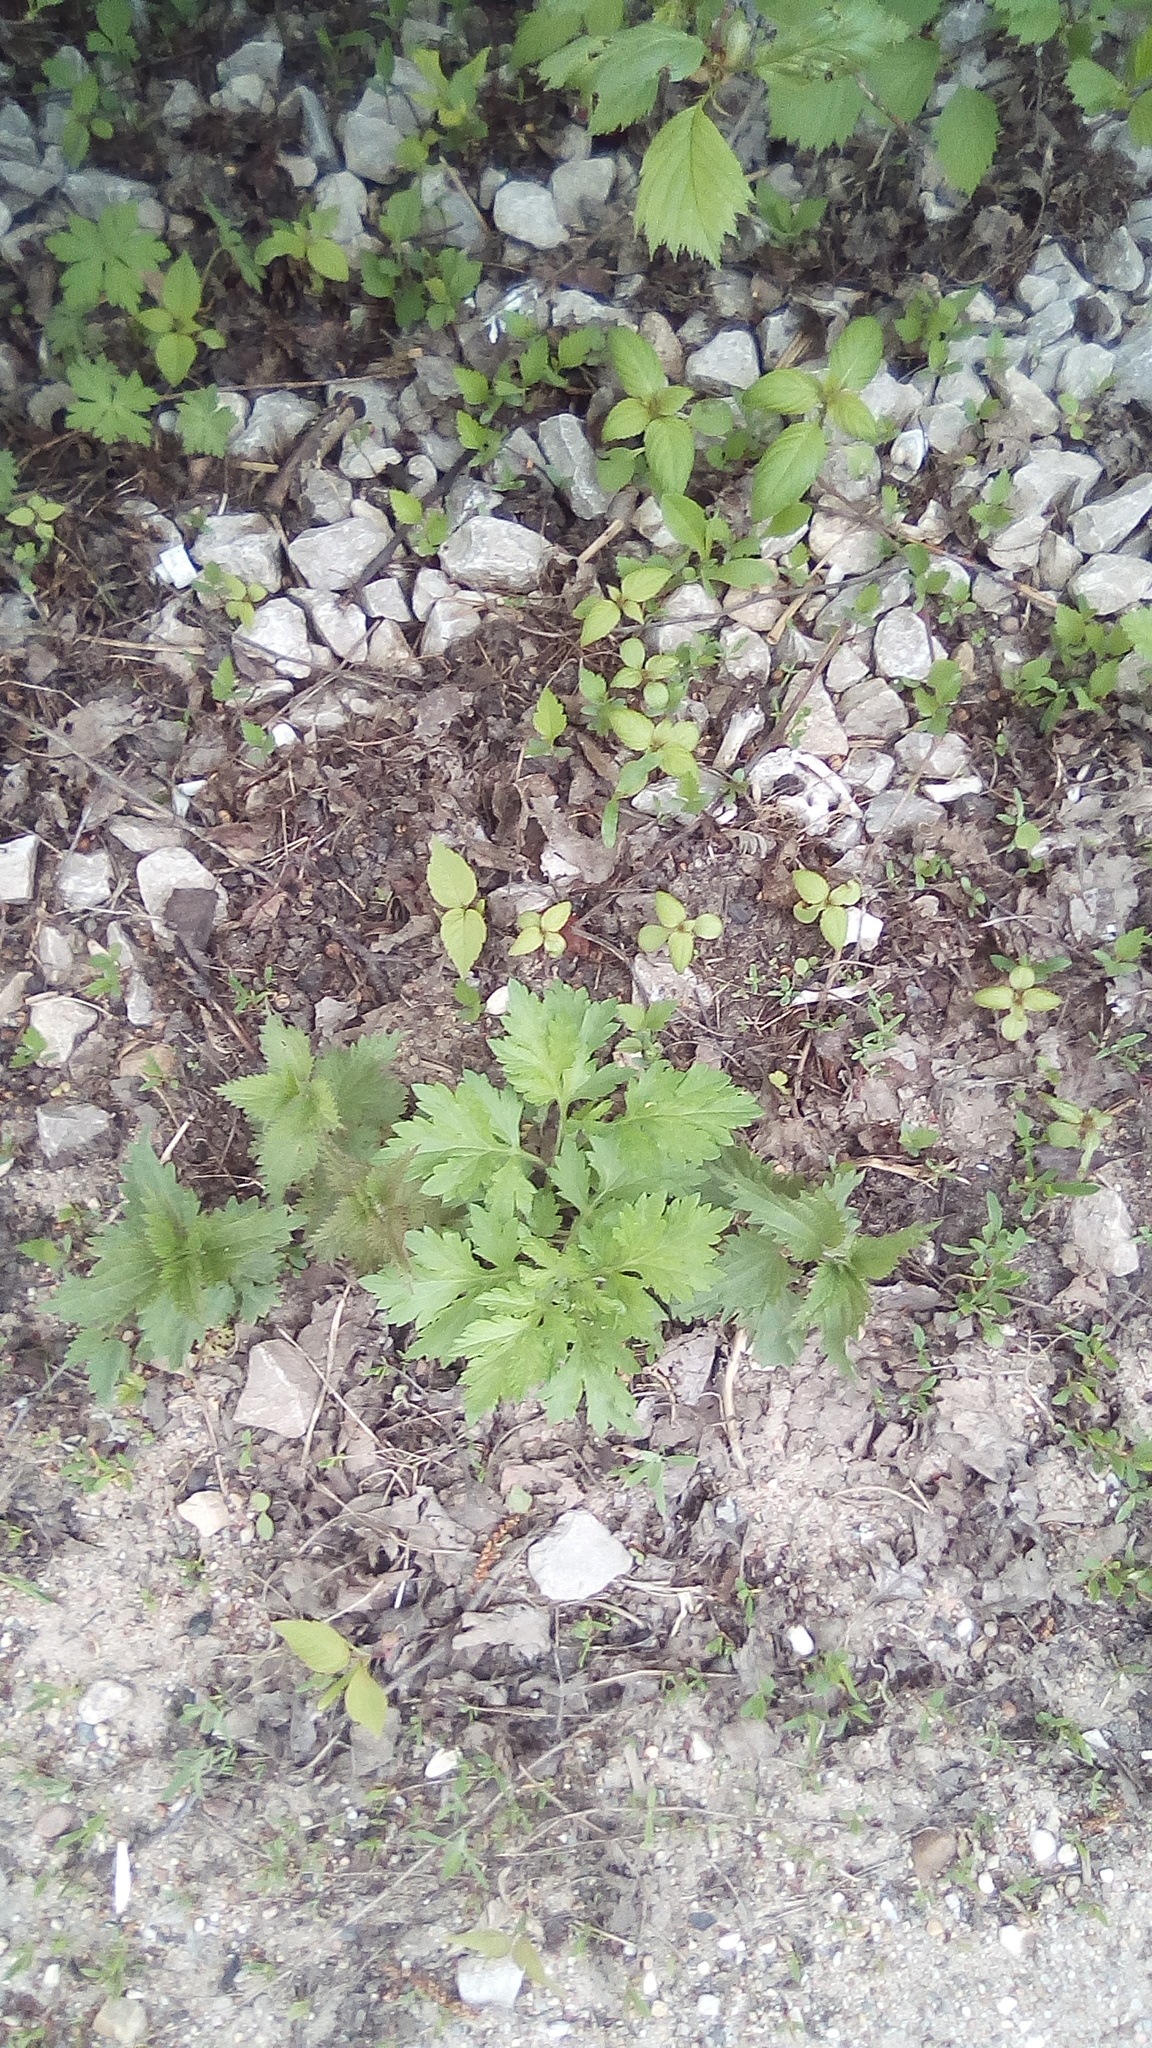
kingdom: Plantae
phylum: Tracheophyta
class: Magnoliopsida
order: Asterales
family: Asteraceae
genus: Artemisia
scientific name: Artemisia vulgaris
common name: Mugwort
